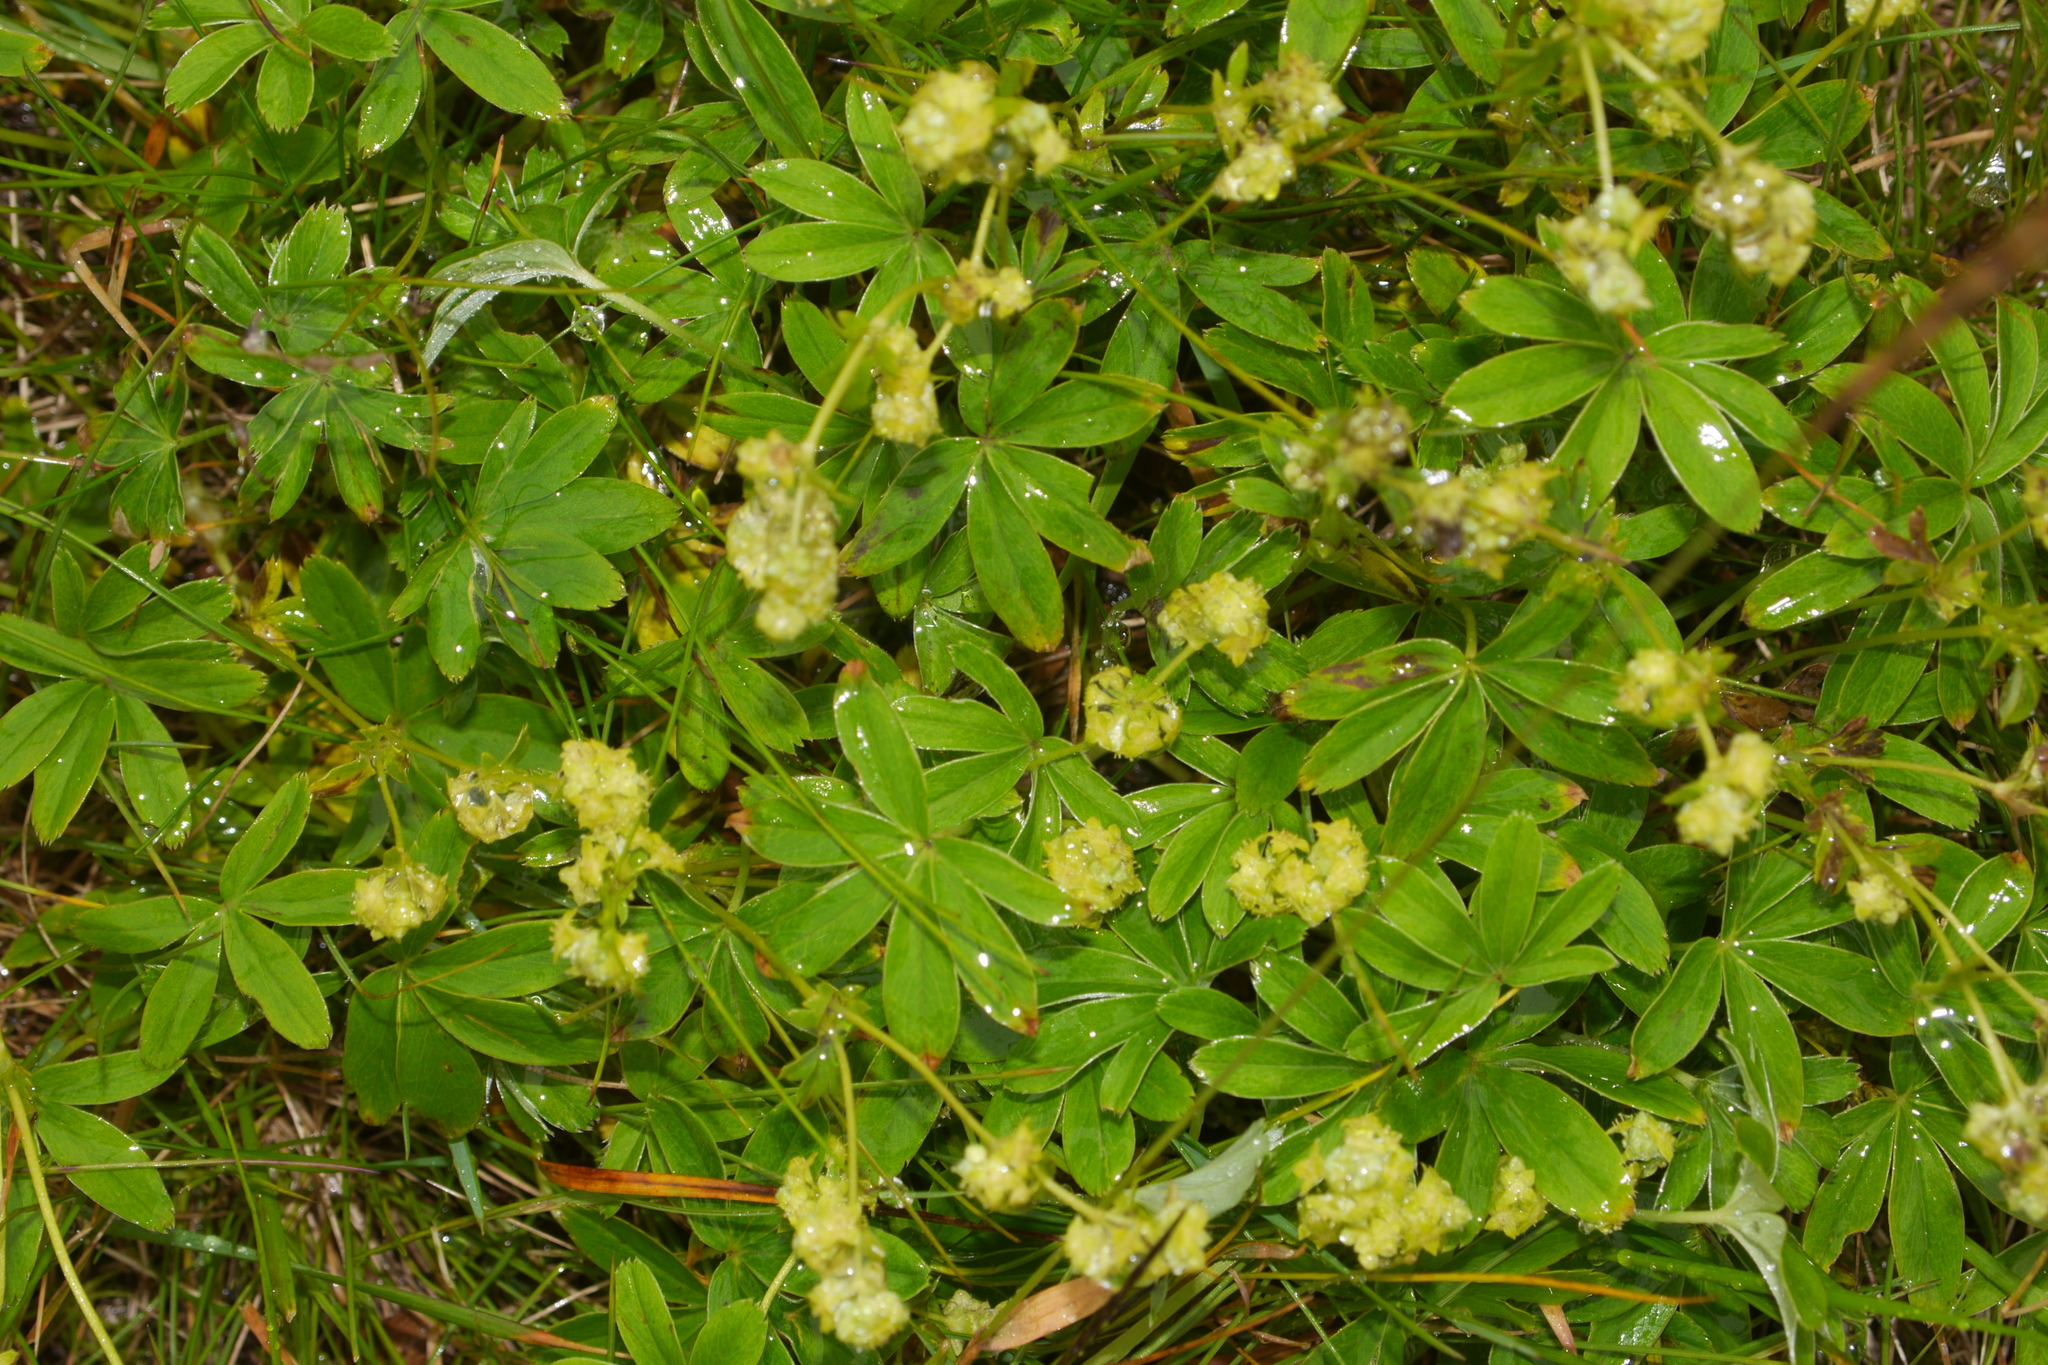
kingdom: Plantae
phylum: Tracheophyta
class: Magnoliopsida
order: Rosales
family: Rosaceae
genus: Alchemilla
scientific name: Alchemilla alpina
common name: Alpine lady's-mantle
